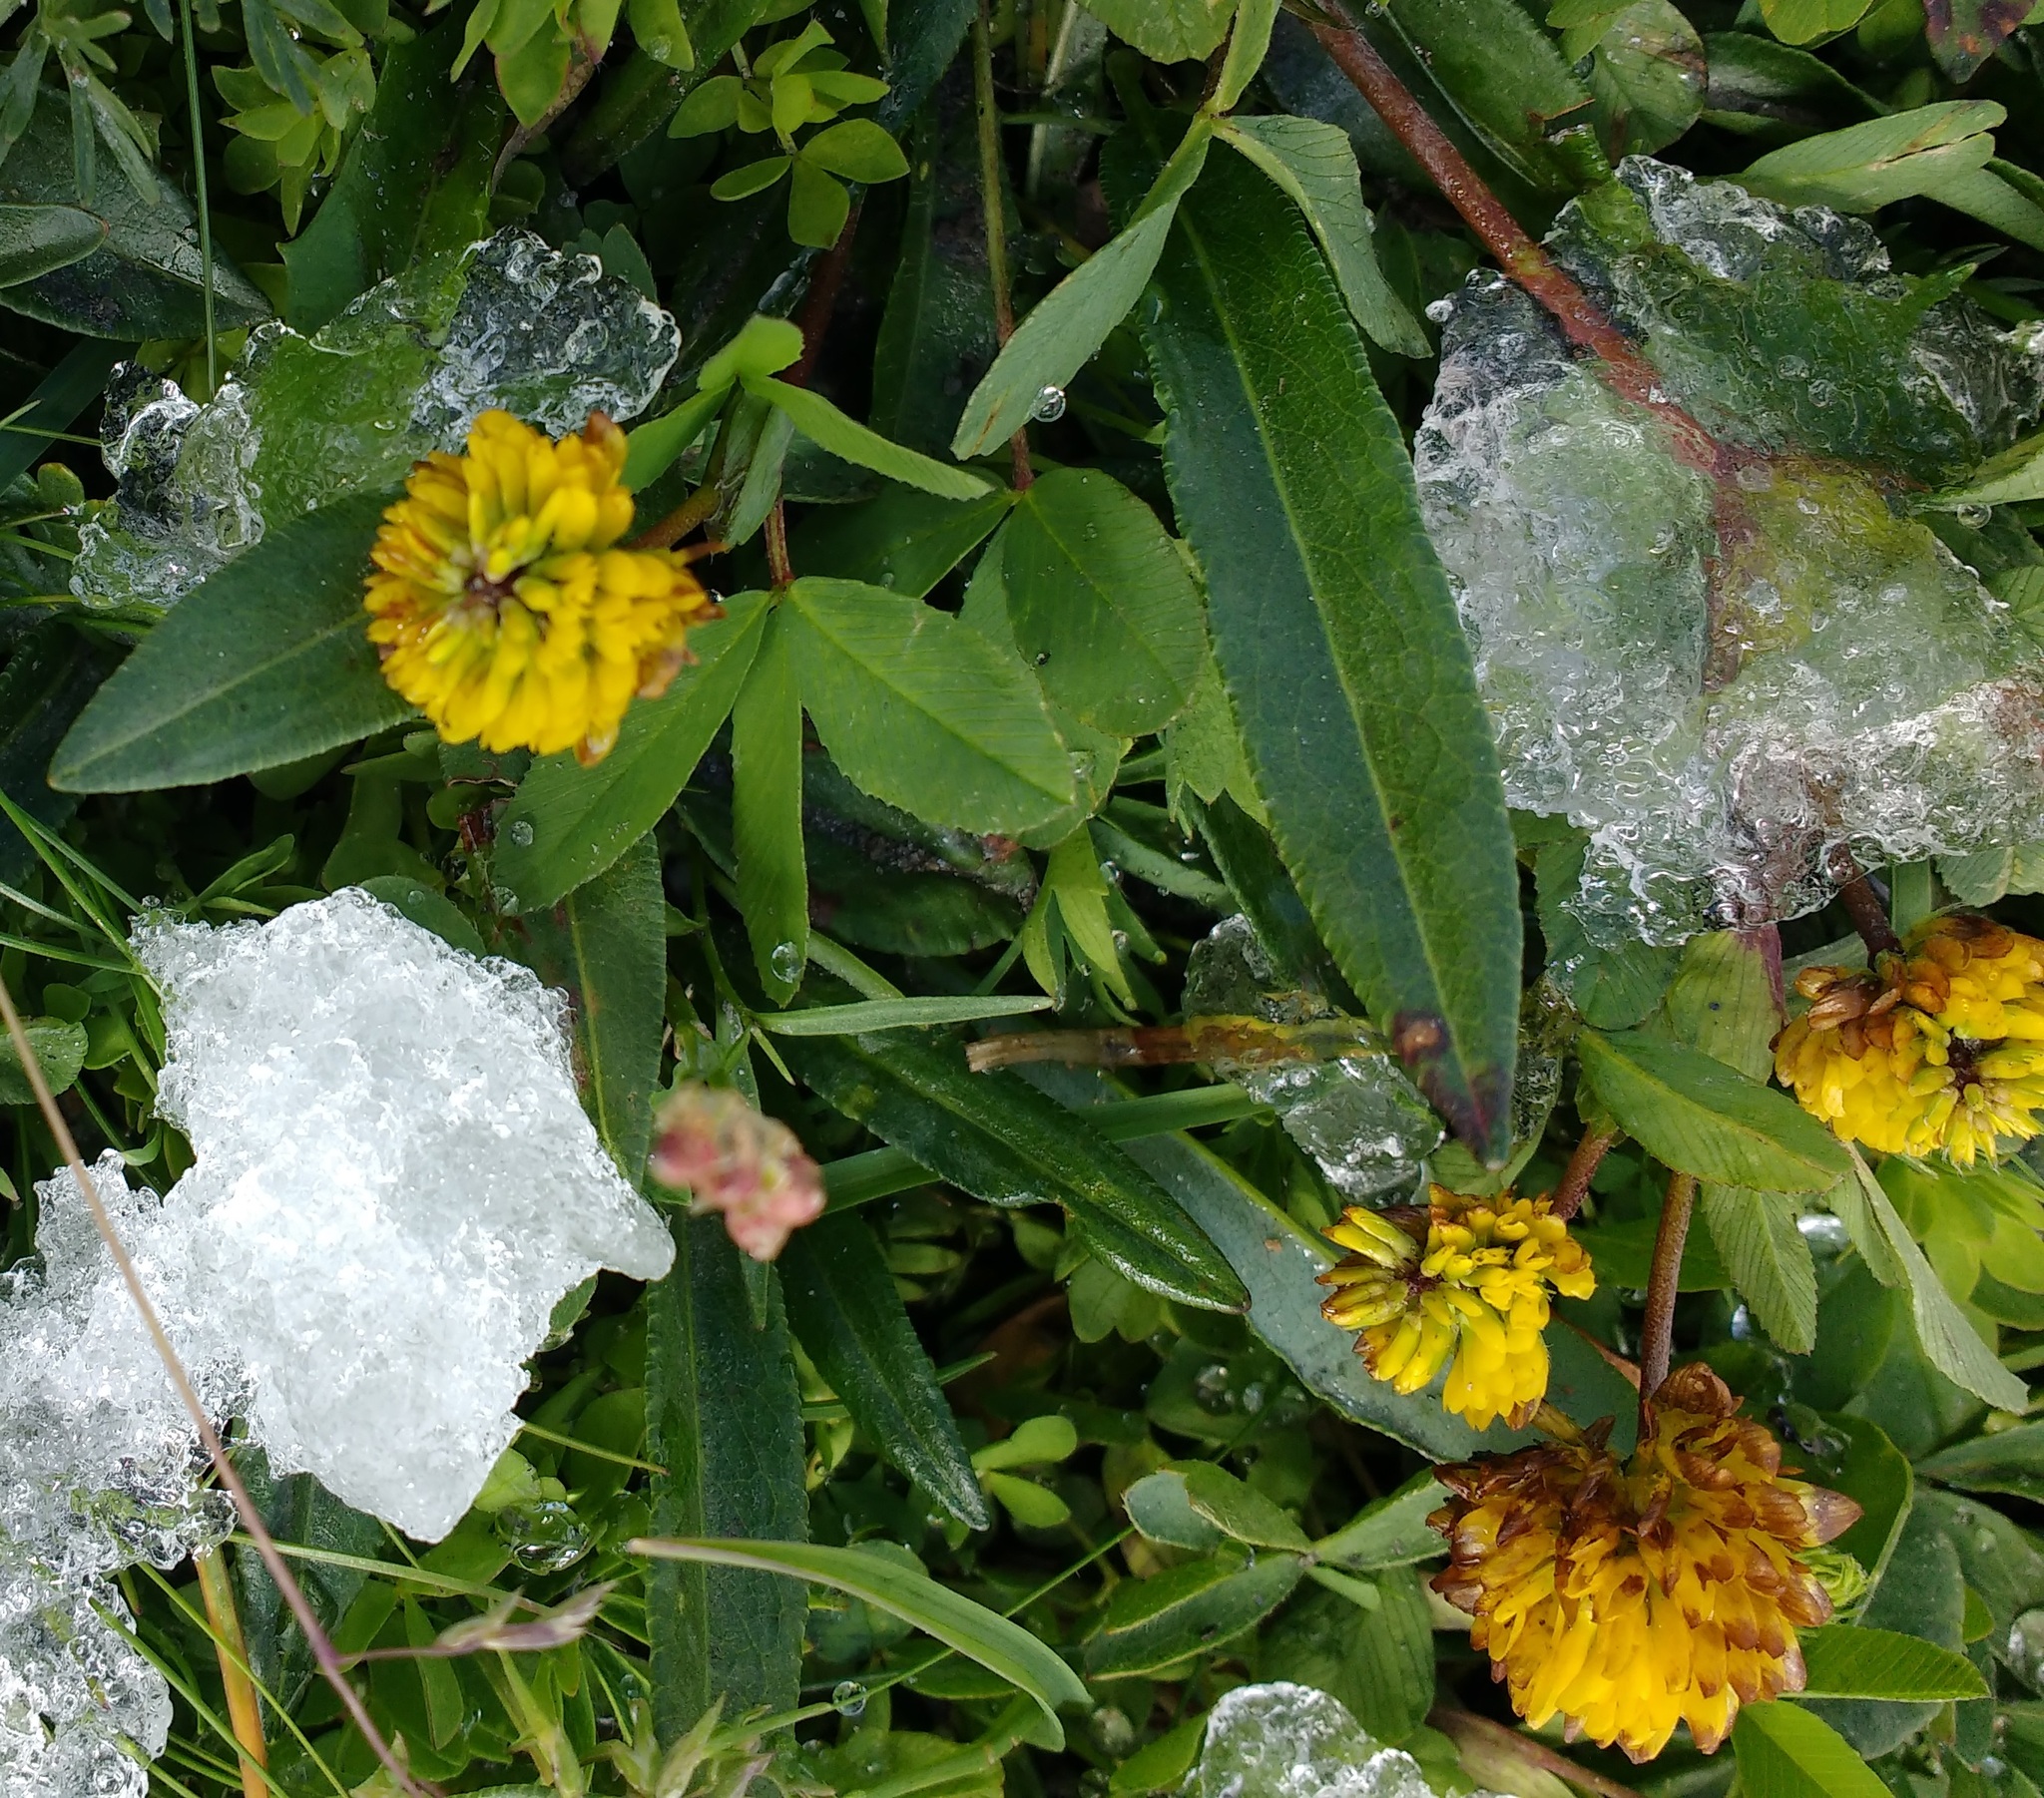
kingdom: Plantae
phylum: Tracheophyta
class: Magnoliopsida
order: Fabales
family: Fabaceae
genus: Trifolium
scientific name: Trifolium badium
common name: Brown clover
